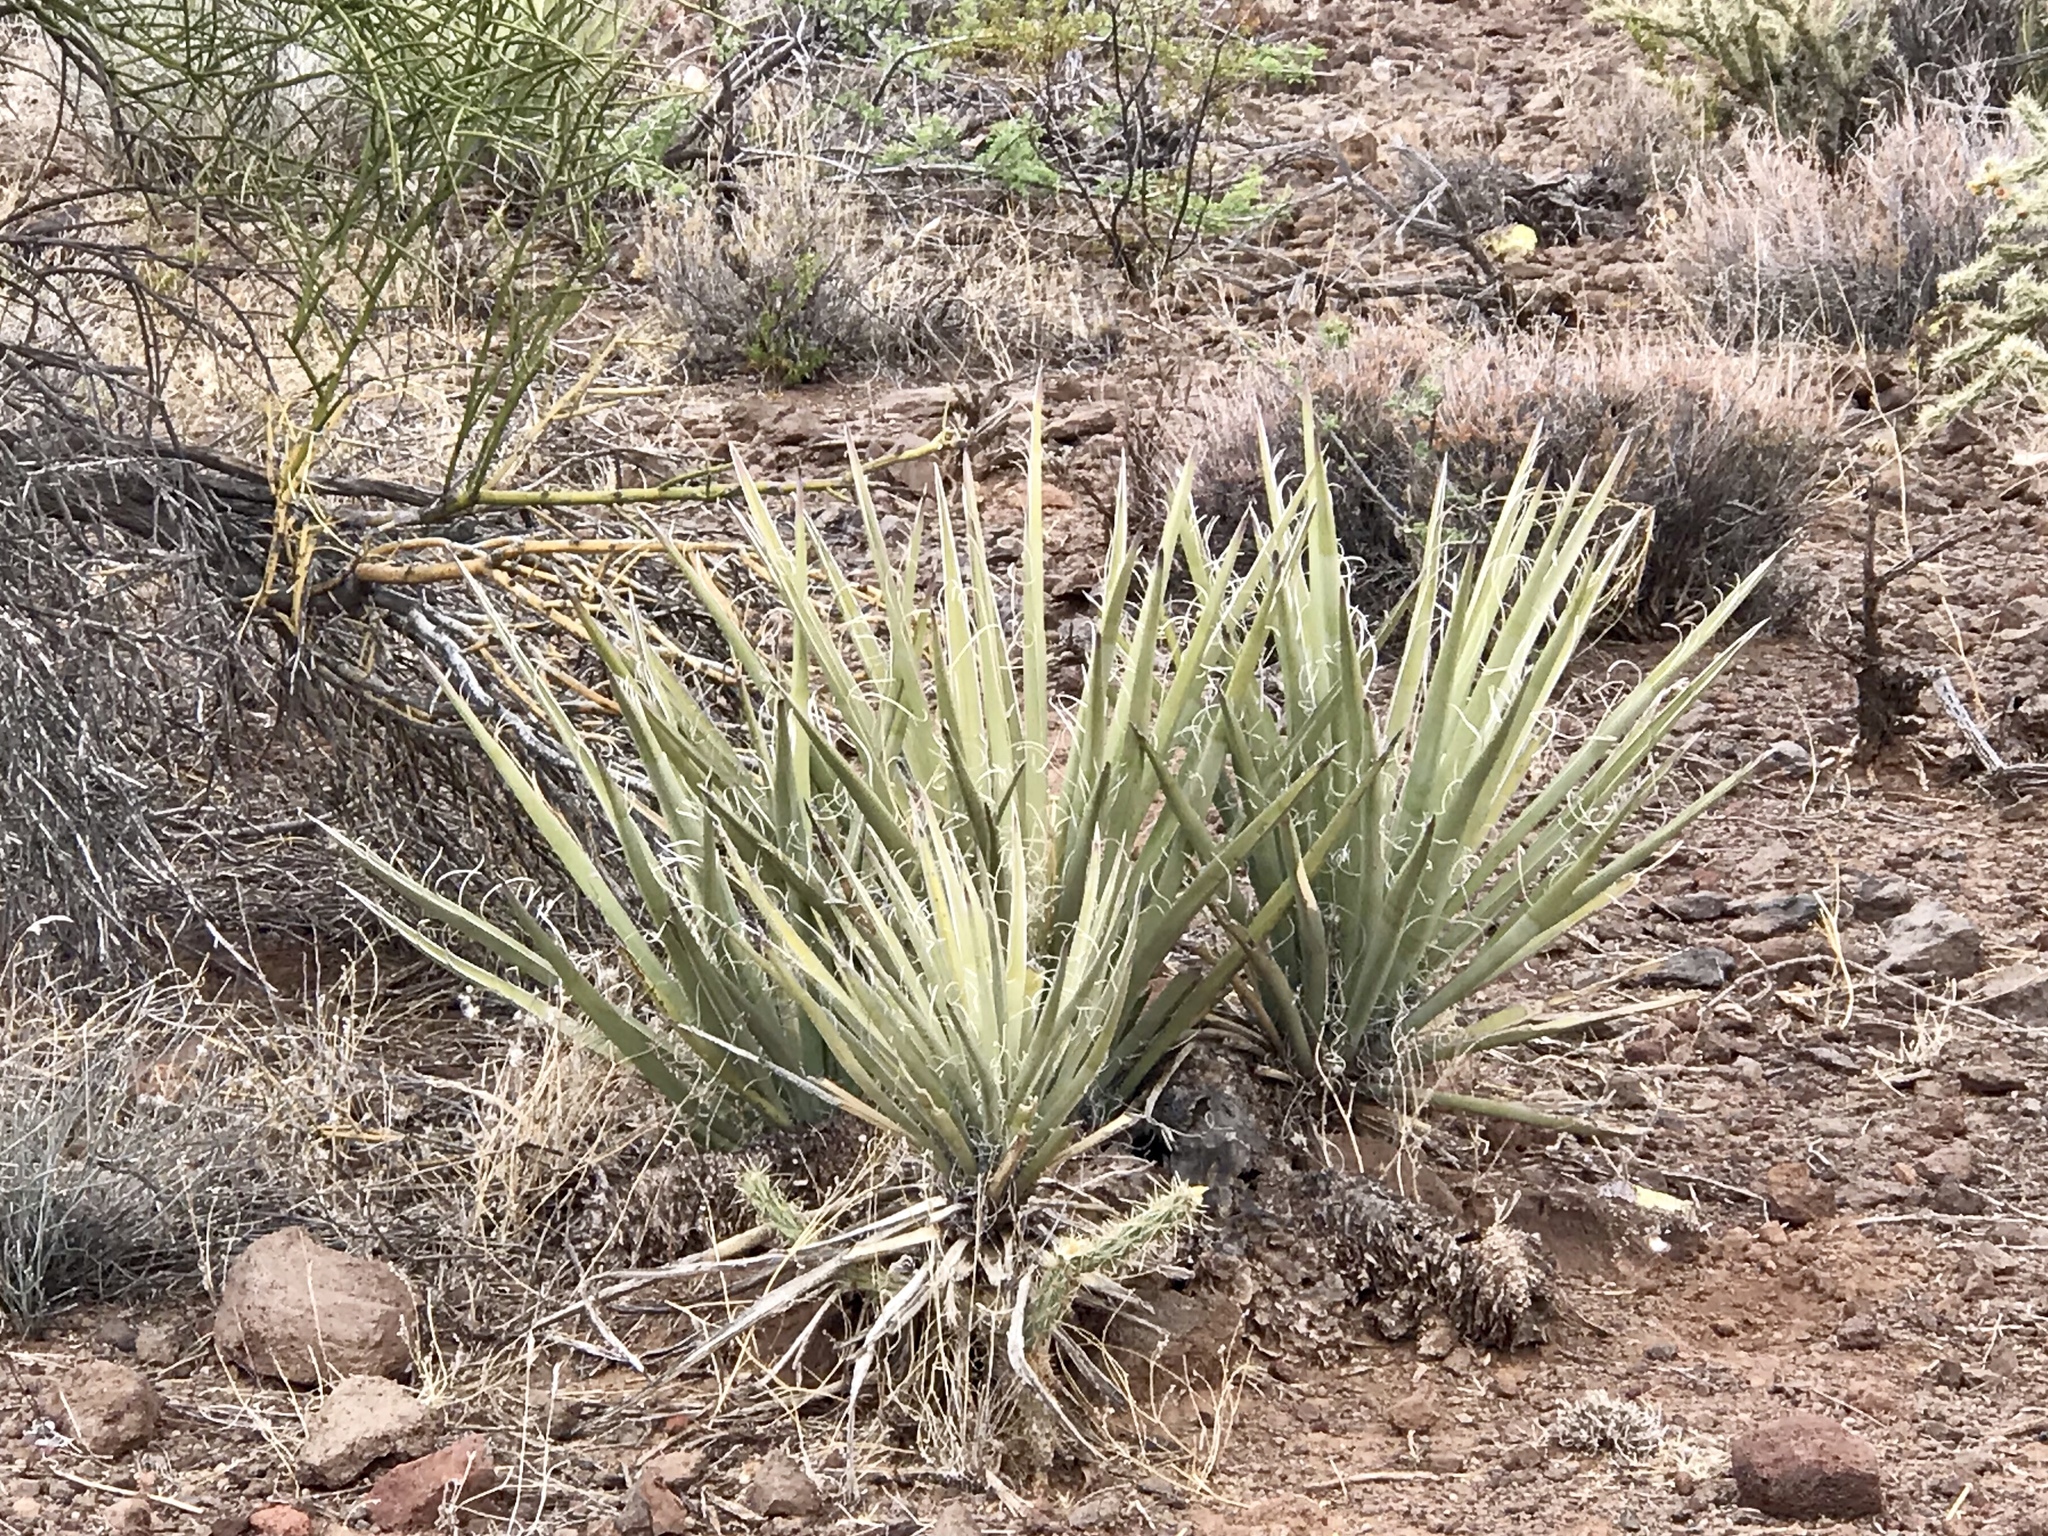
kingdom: Plantae
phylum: Tracheophyta
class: Liliopsida
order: Asparagales
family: Asparagaceae
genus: Yucca
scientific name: Yucca baccata
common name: Banana yucca
